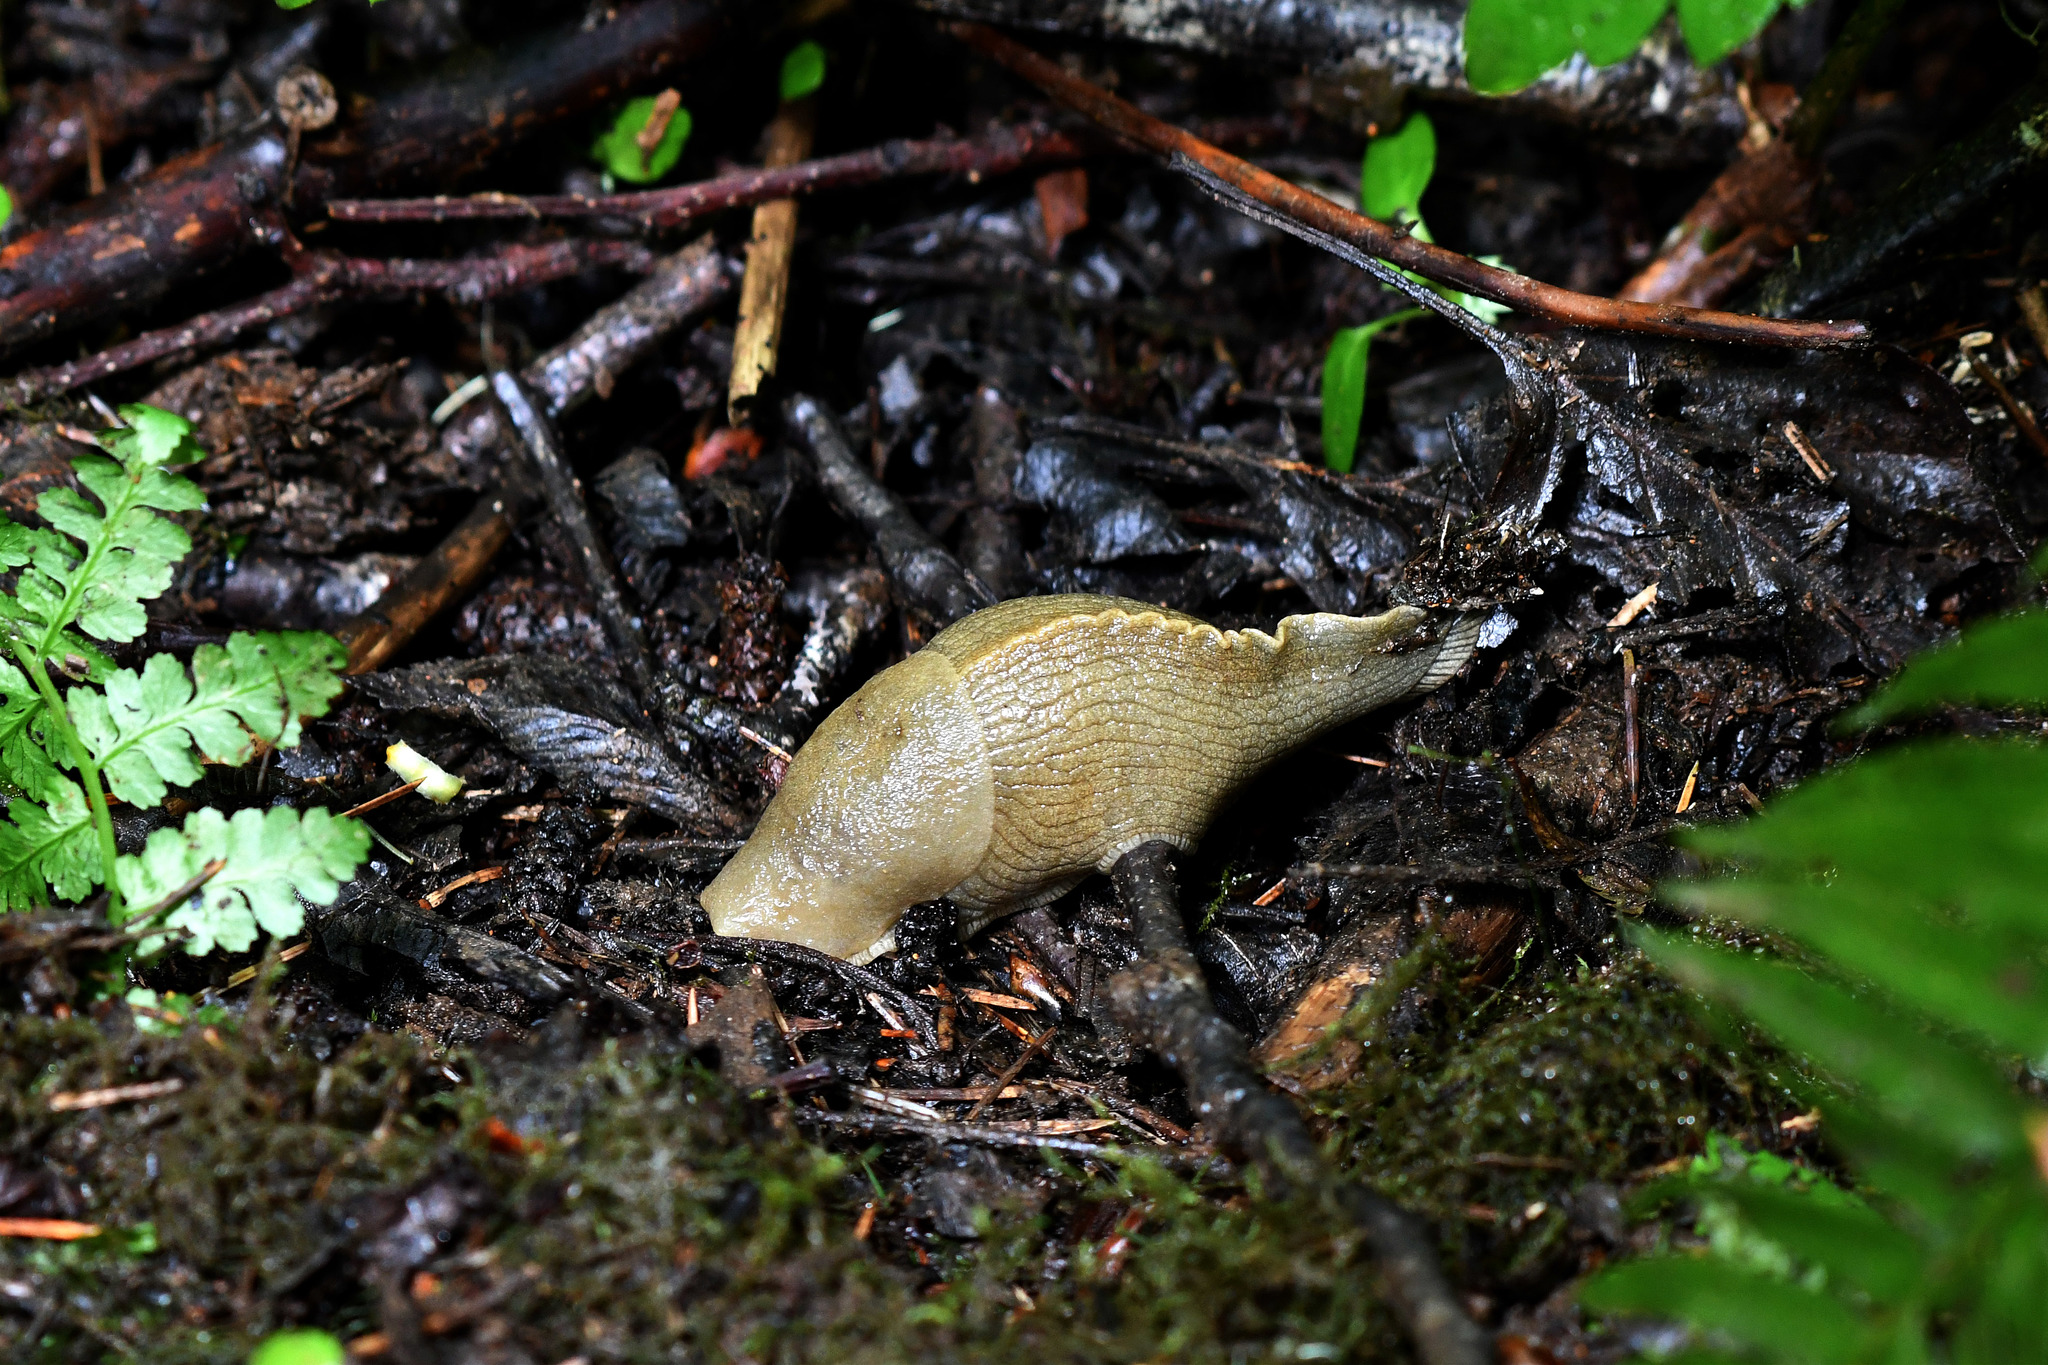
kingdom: Animalia
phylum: Mollusca
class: Gastropoda
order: Stylommatophora
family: Ariolimacidae
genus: Ariolimax
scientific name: Ariolimax columbianus
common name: Pacific banana slug
